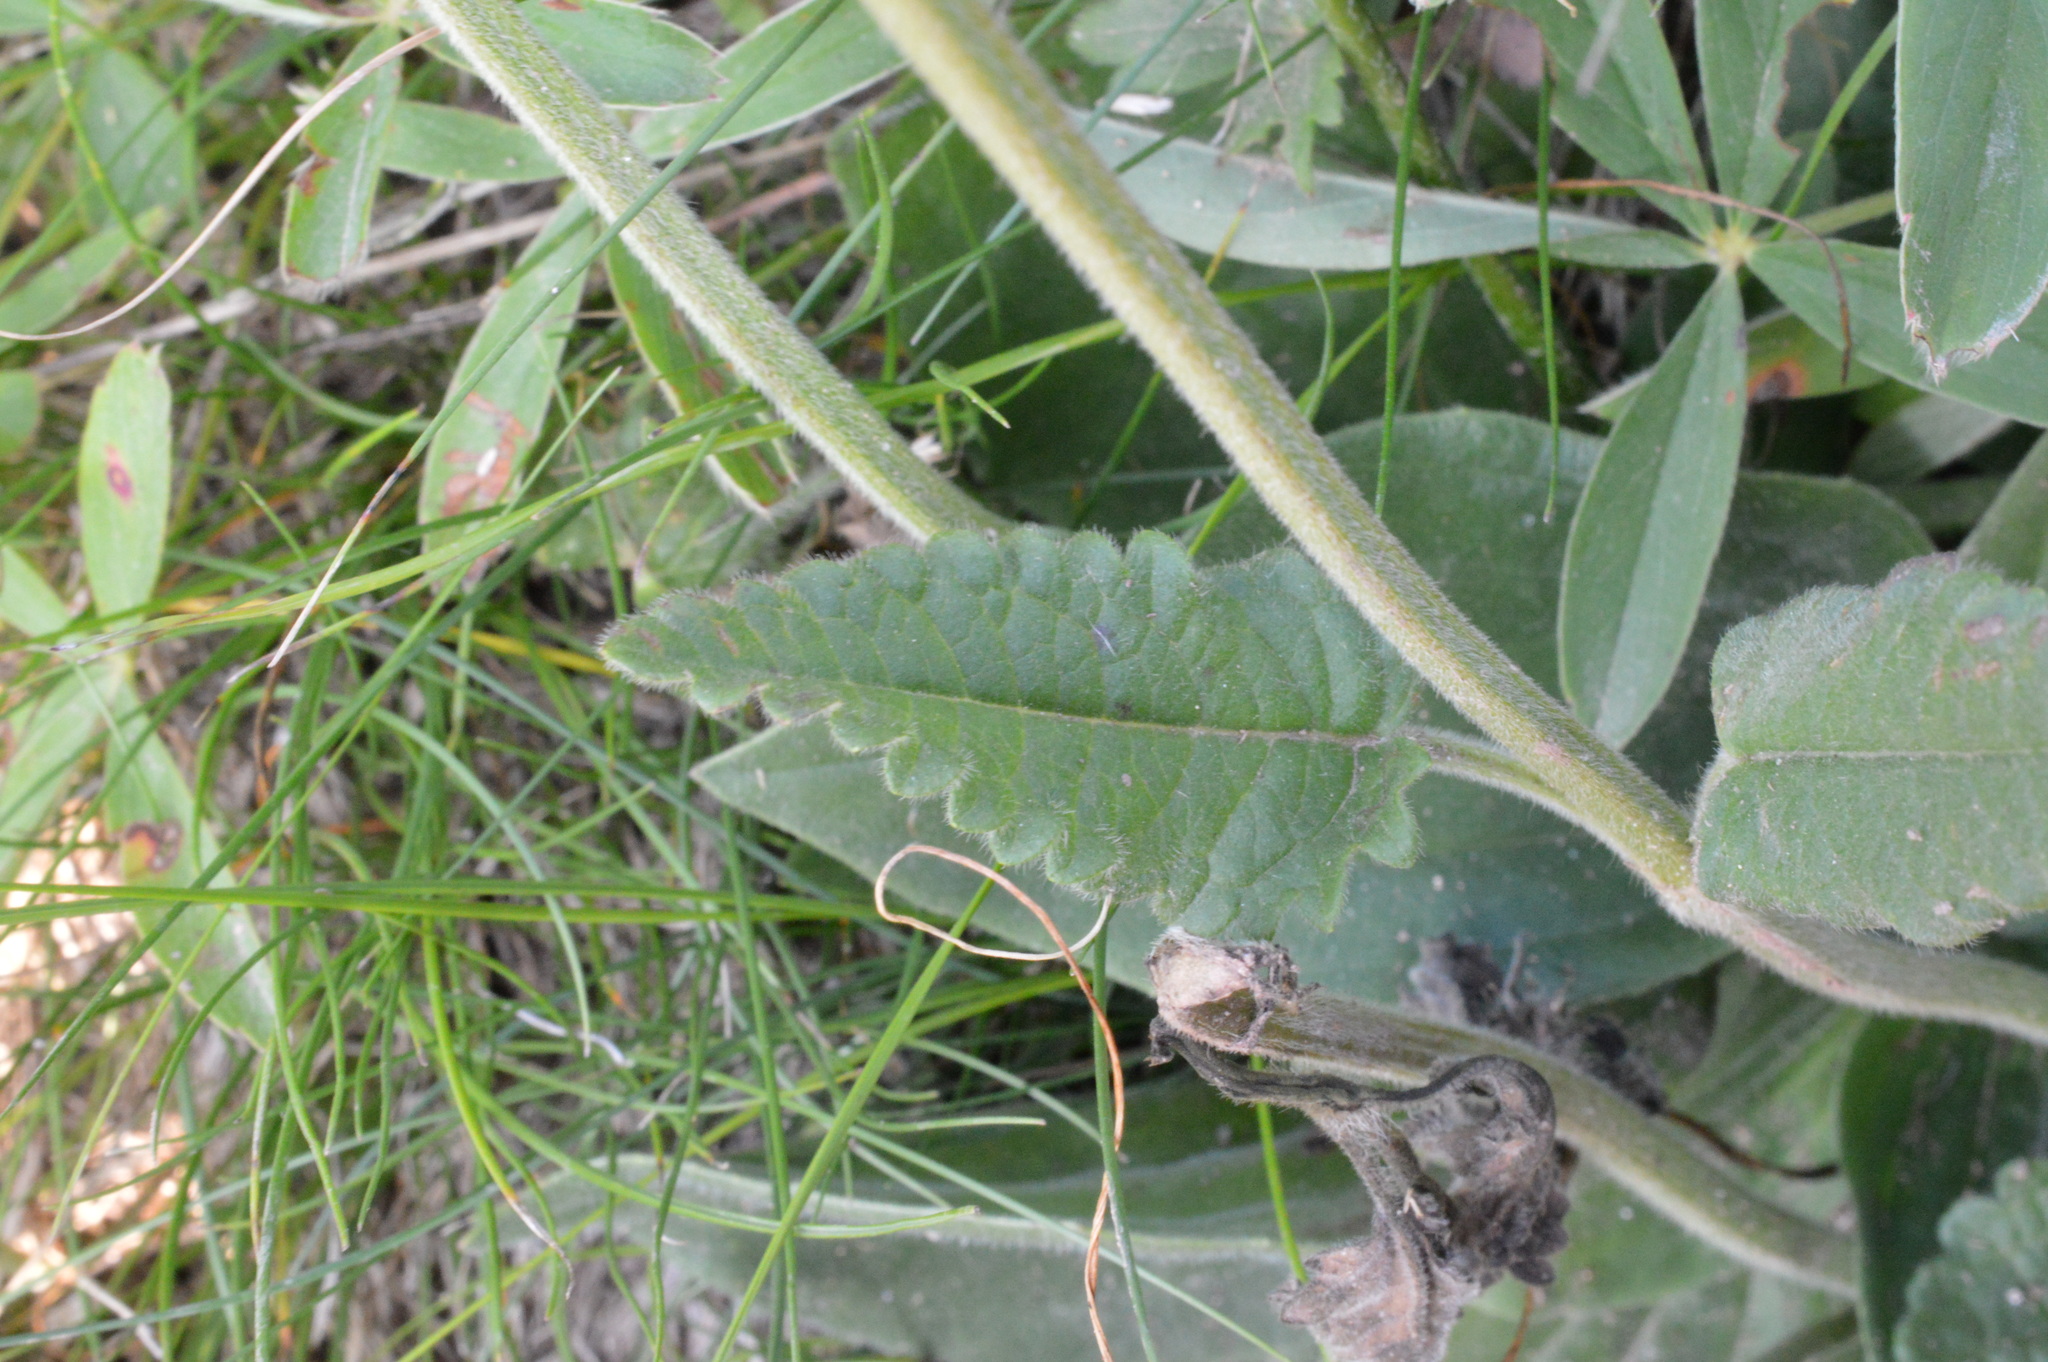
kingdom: Plantae
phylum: Tracheophyta
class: Magnoliopsida
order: Lamiales
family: Lamiaceae
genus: Betonica
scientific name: Betonica officinalis
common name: Bishop's-wort
